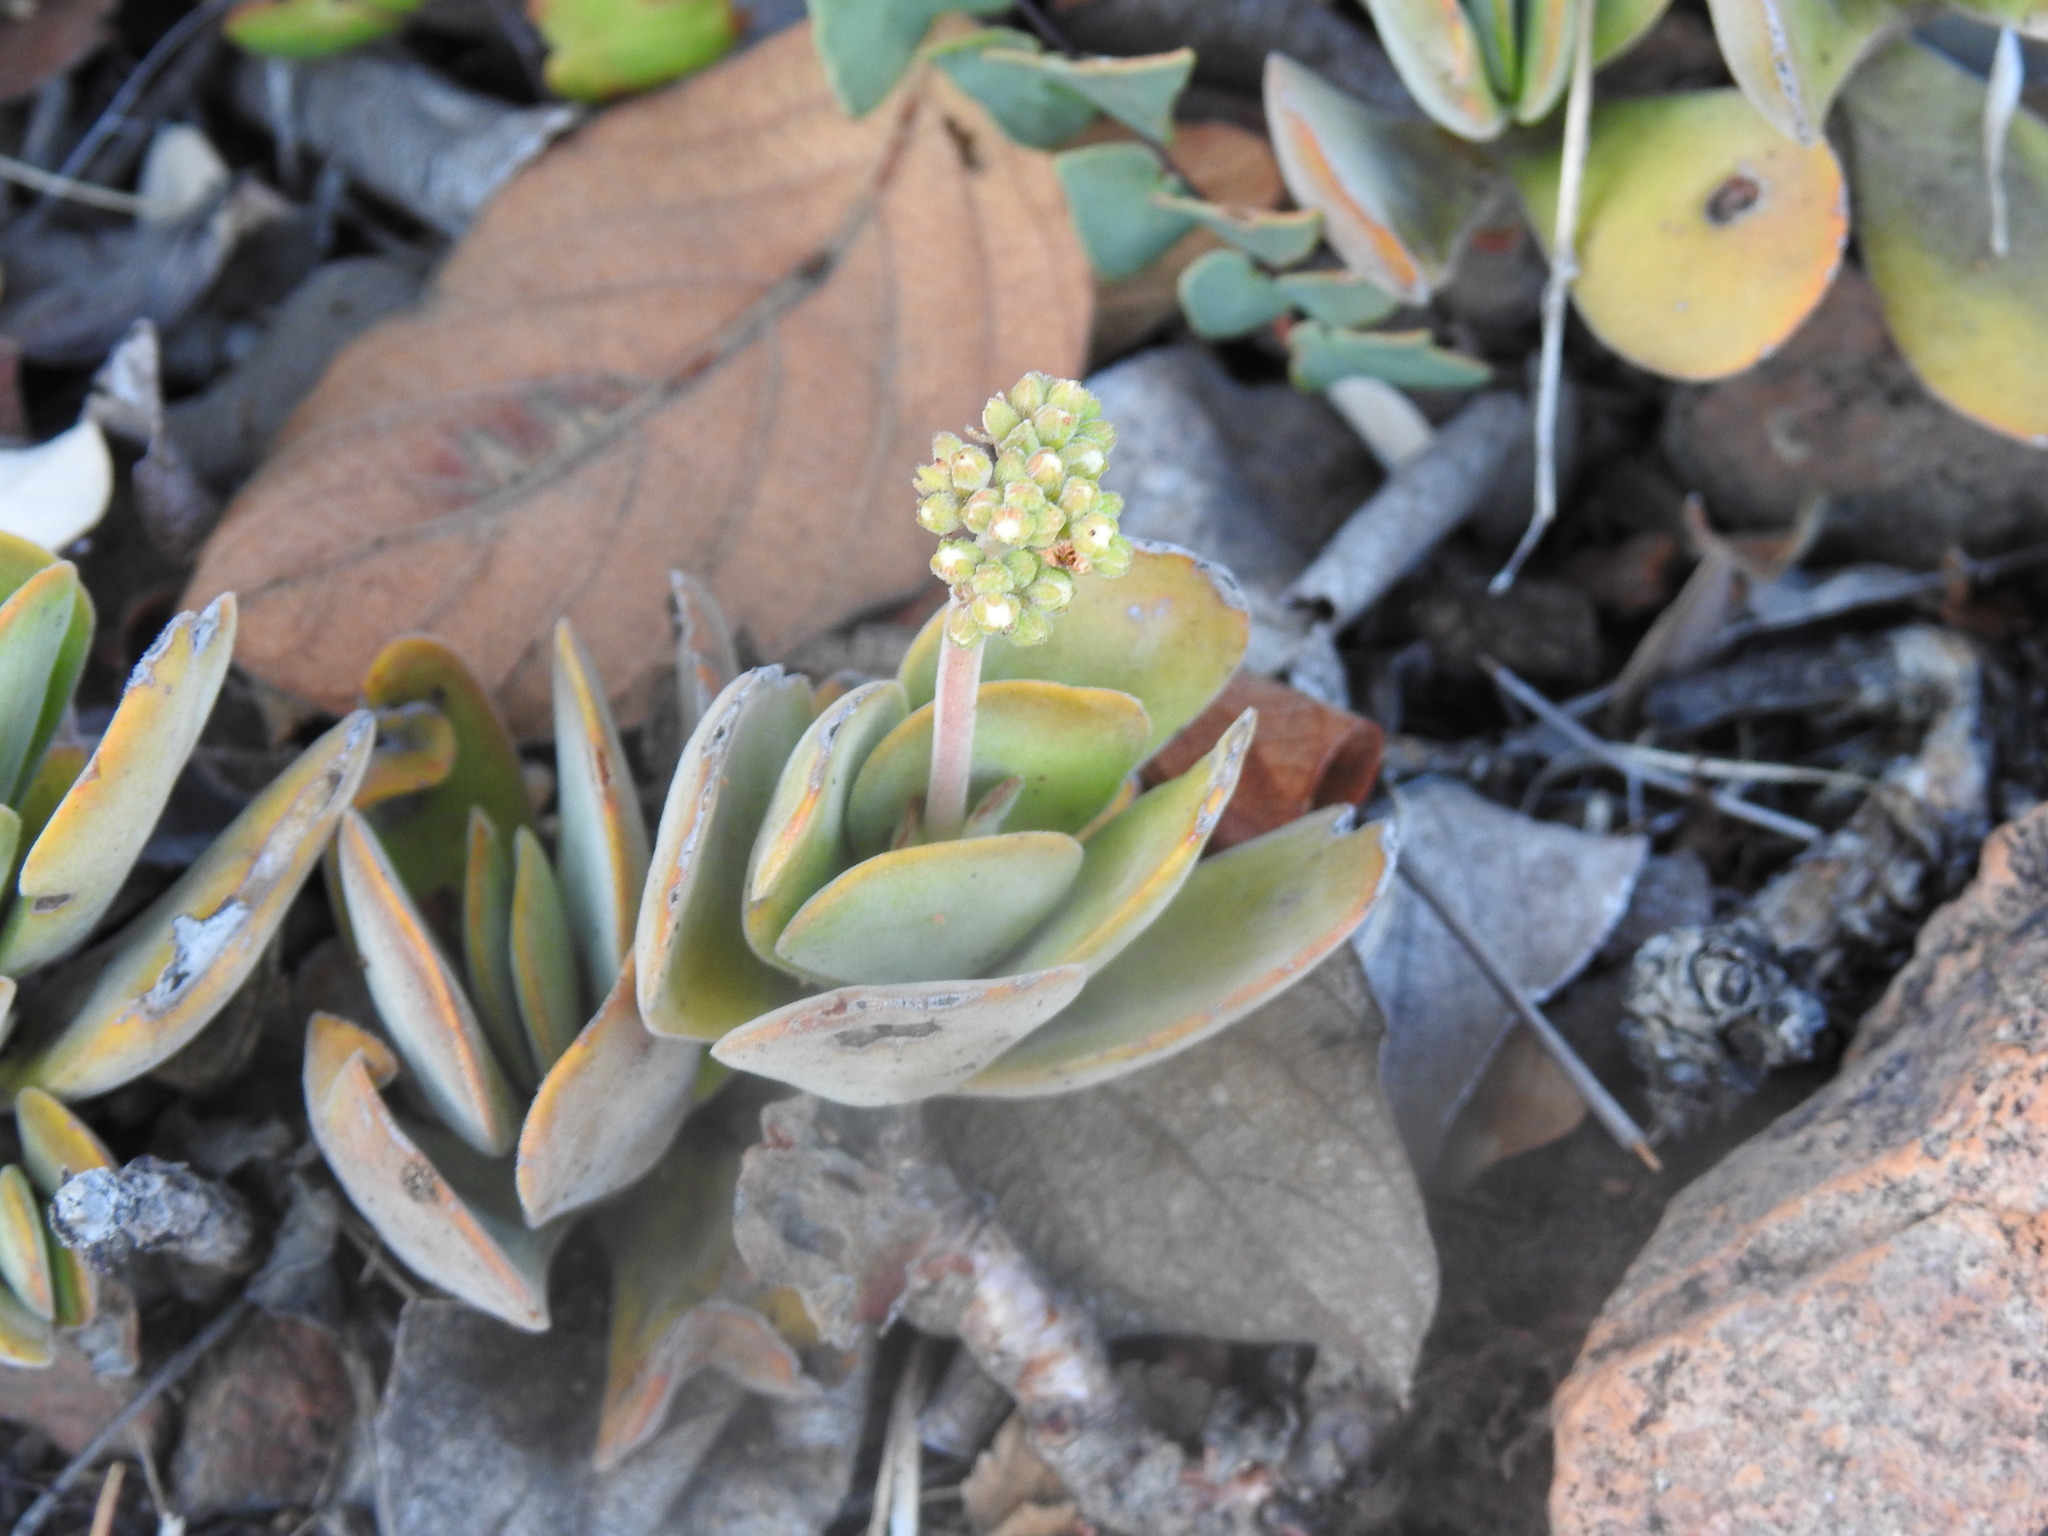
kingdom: Plantae
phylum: Tracheophyta
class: Magnoliopsida
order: Saxifragales
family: Crassulaceae
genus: Crassula
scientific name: Crassula globularioides
